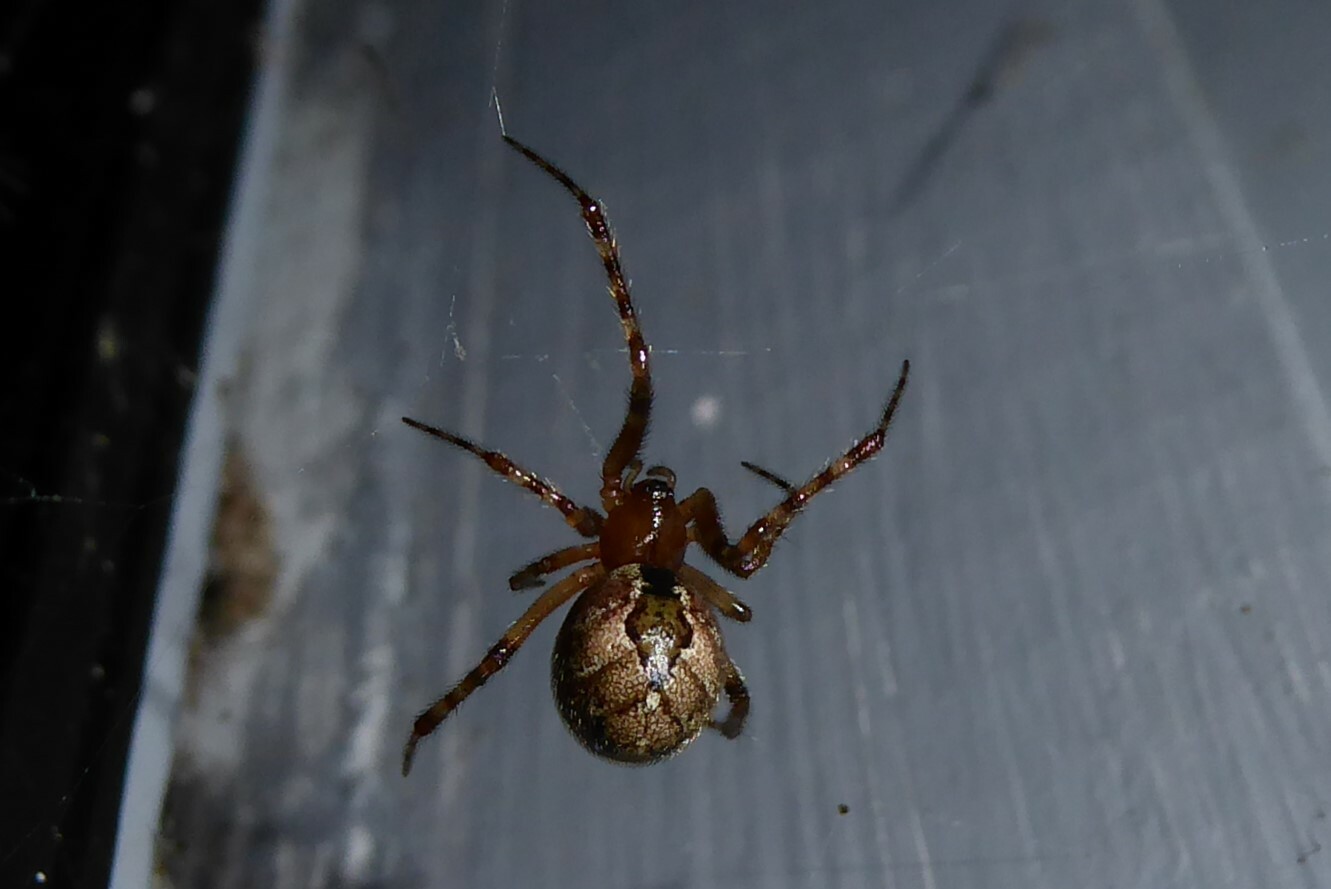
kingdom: Animalia
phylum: Arthropoda
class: Arachnida
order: Araneae
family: Theridiidae
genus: Cryptachaea
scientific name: Cryptachaea veruculata
